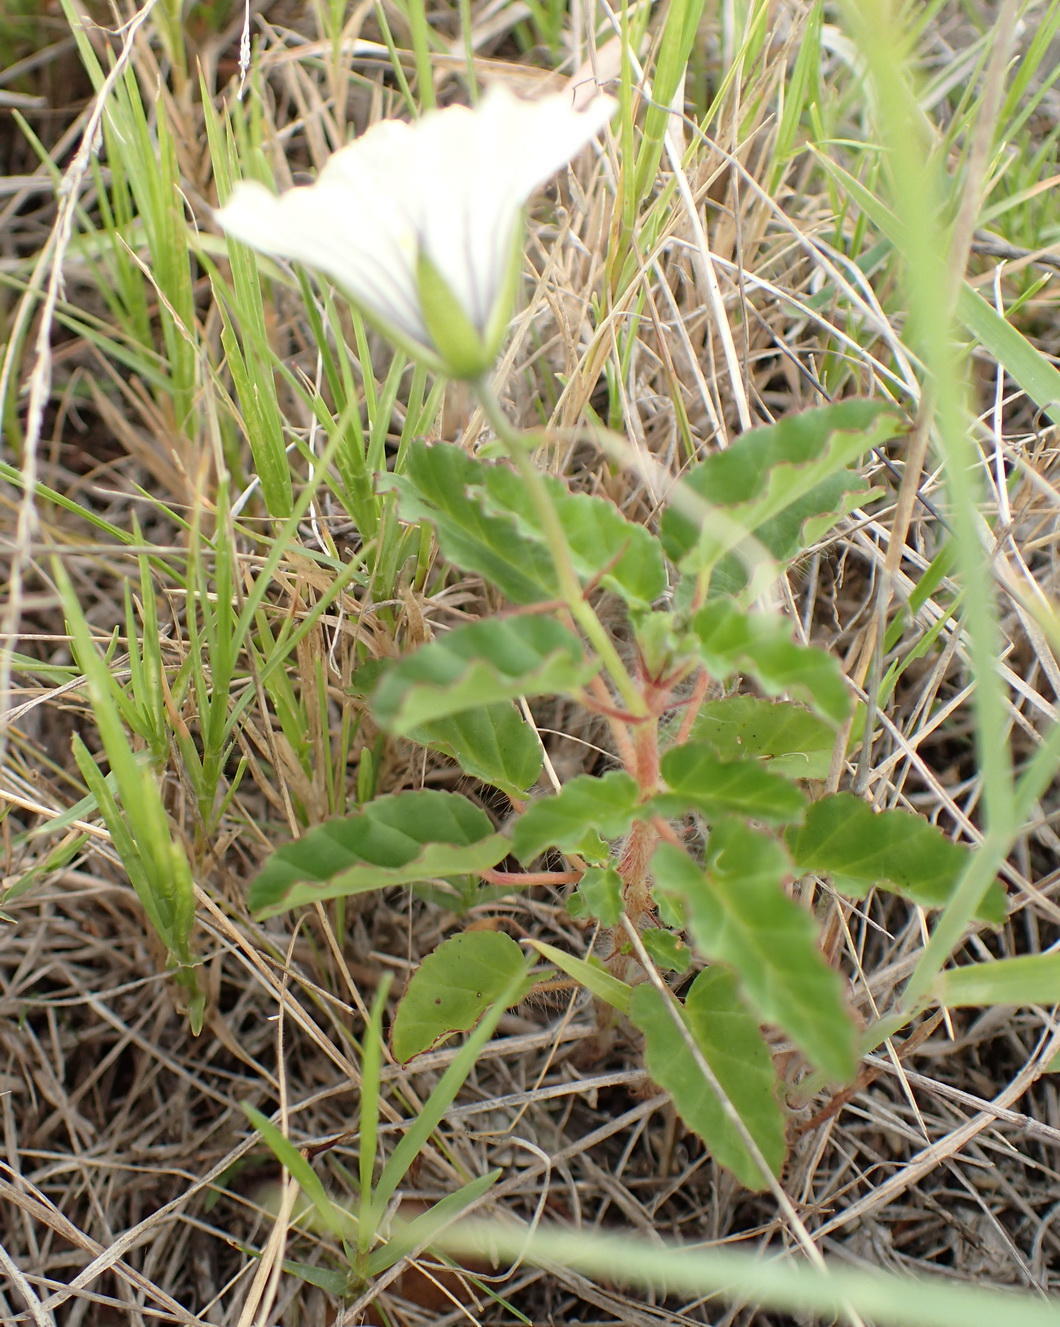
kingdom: Plantae
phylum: Tracheophyta
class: Magnoliopsida
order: Geraniales
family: Geraniaceae
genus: Monsonia
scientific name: Monsonia emarginata
